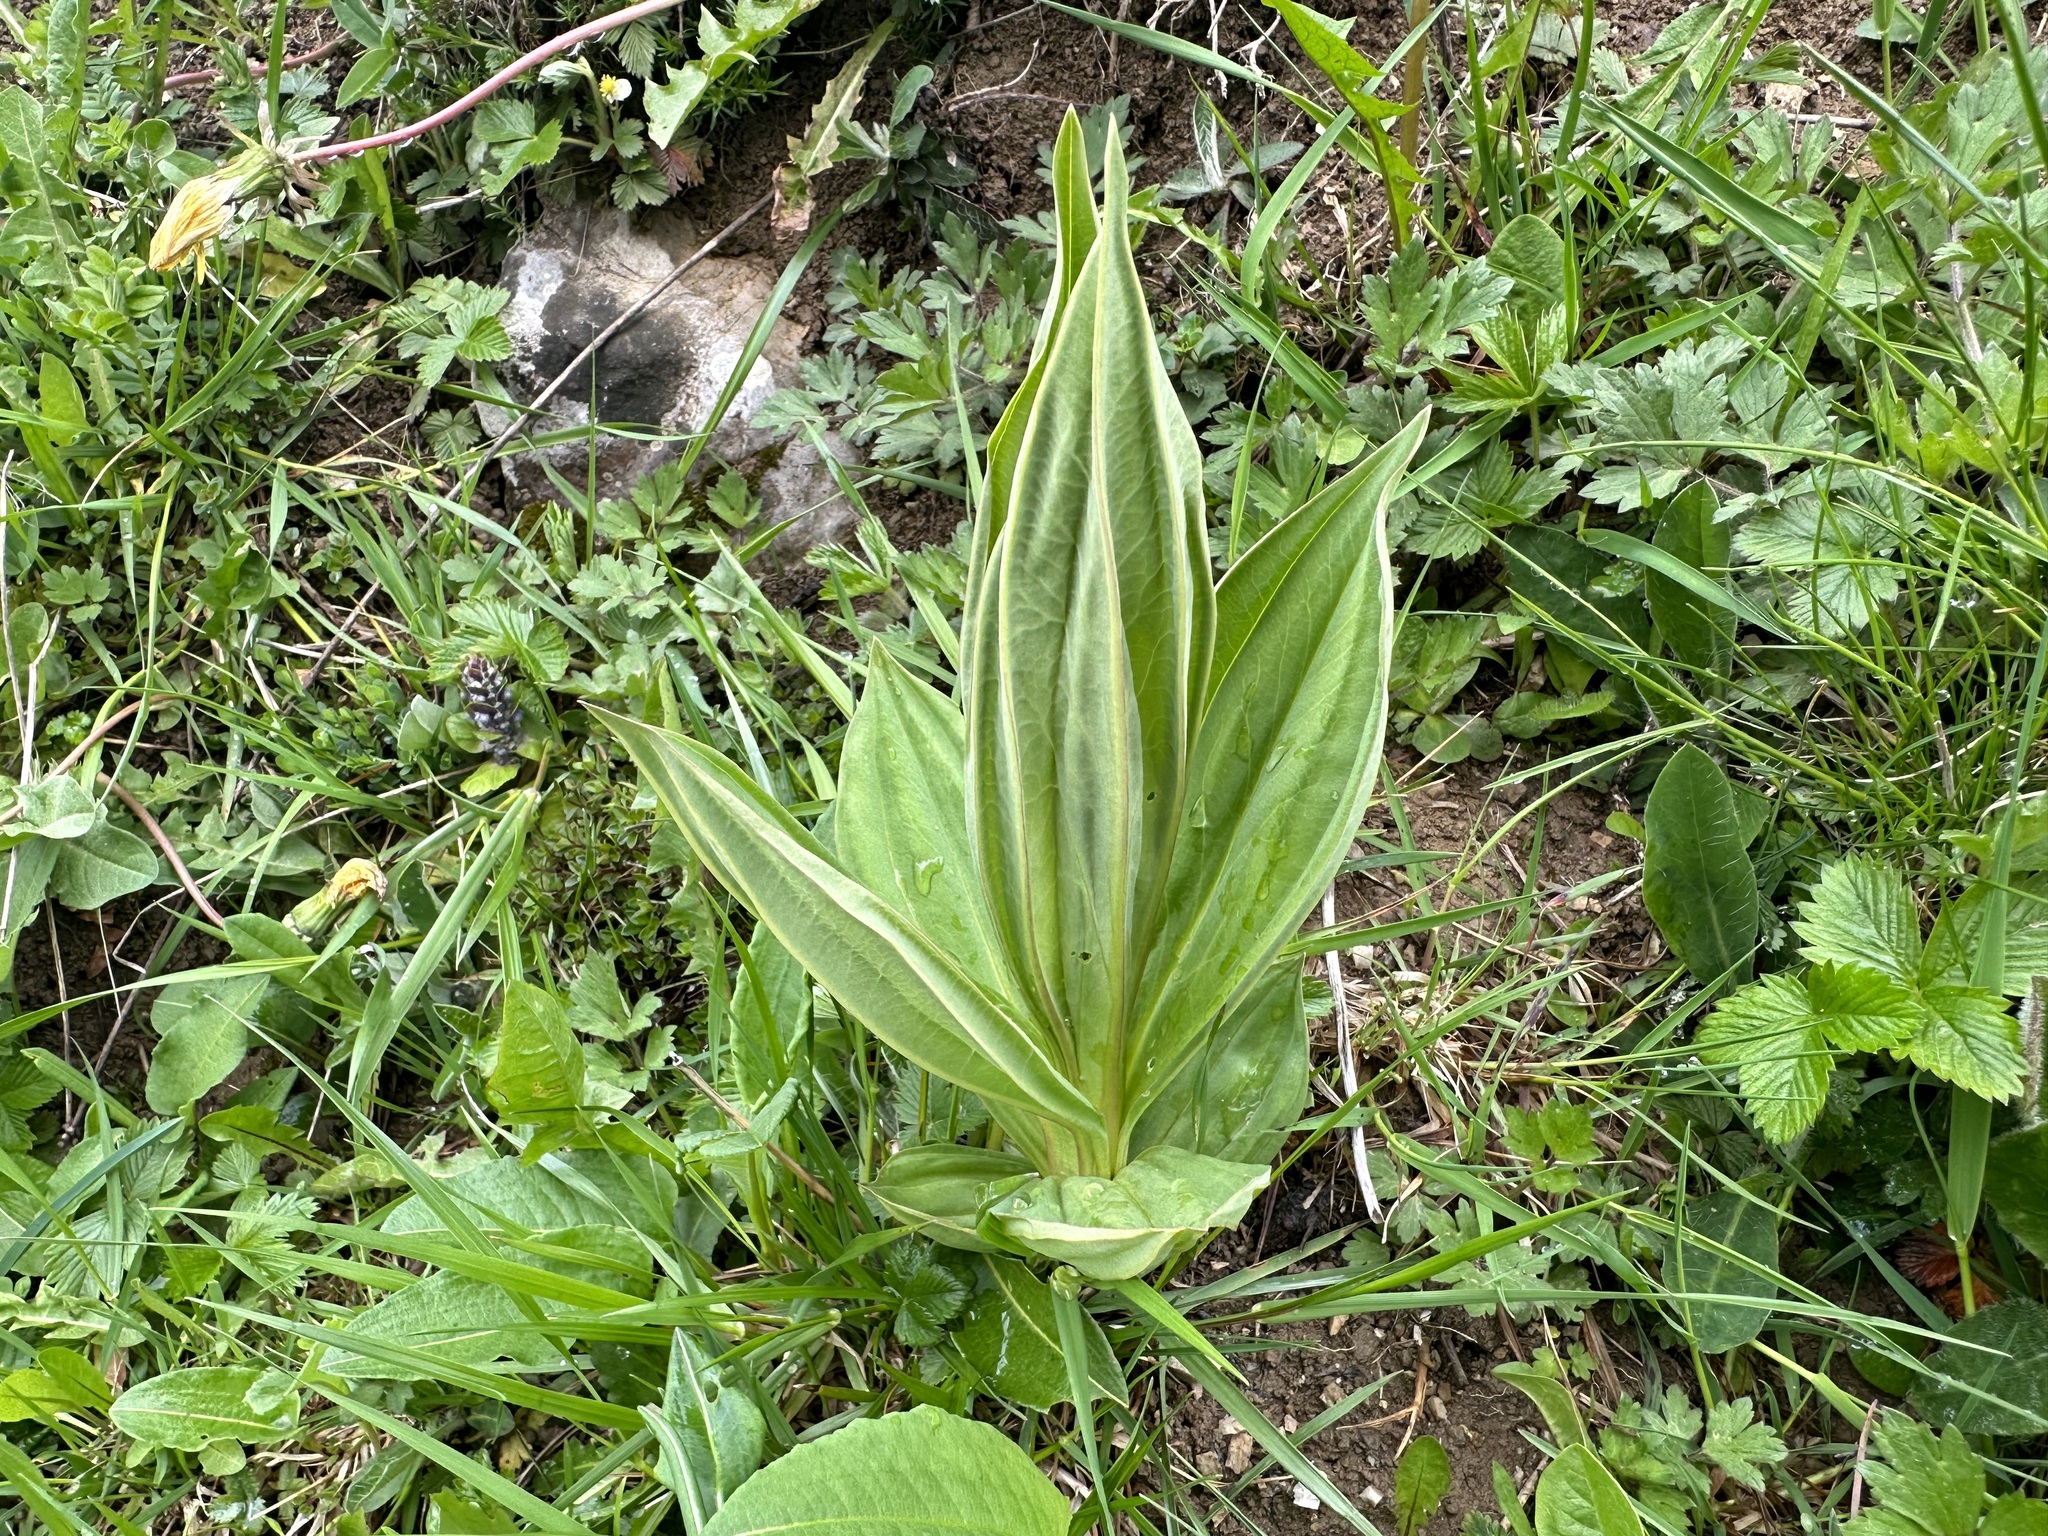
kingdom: Plantae
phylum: Tracheophyta
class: Magnoliopsida
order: Gentianales
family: Gentianaceae
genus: Gentiana
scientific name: Gentiana lutea
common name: Great yellow gentian
